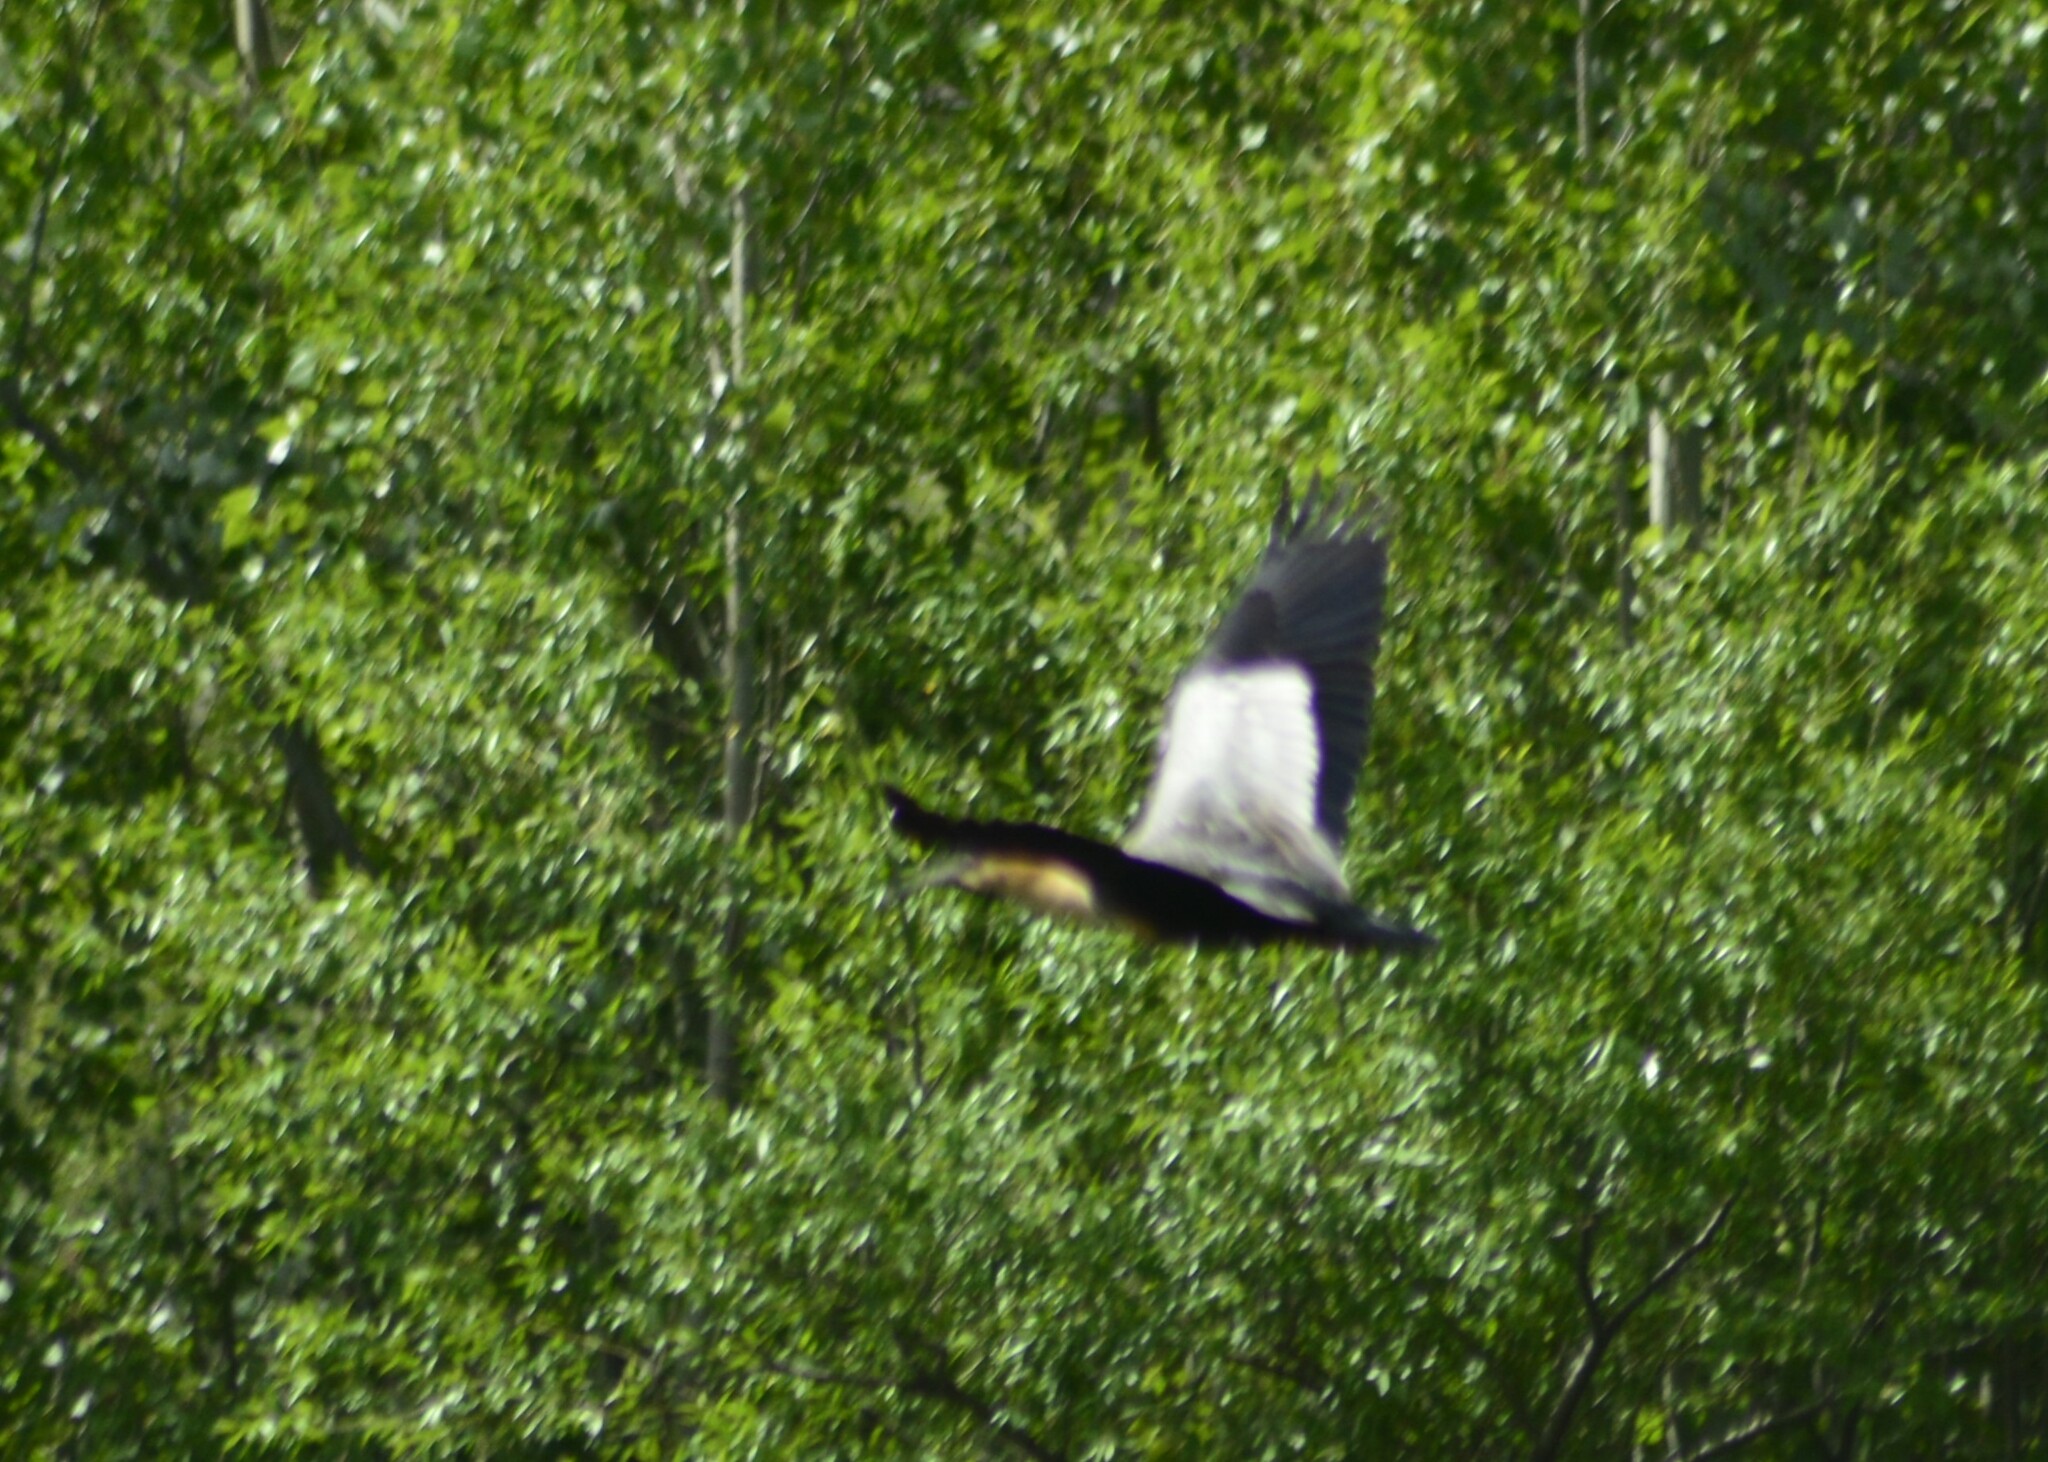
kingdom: Animalia
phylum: Chordata
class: Aves
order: Pelecaniformes
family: Threskiornithidae
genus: Theristicus
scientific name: Theristicus melanopis
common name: Black-faced ibis
